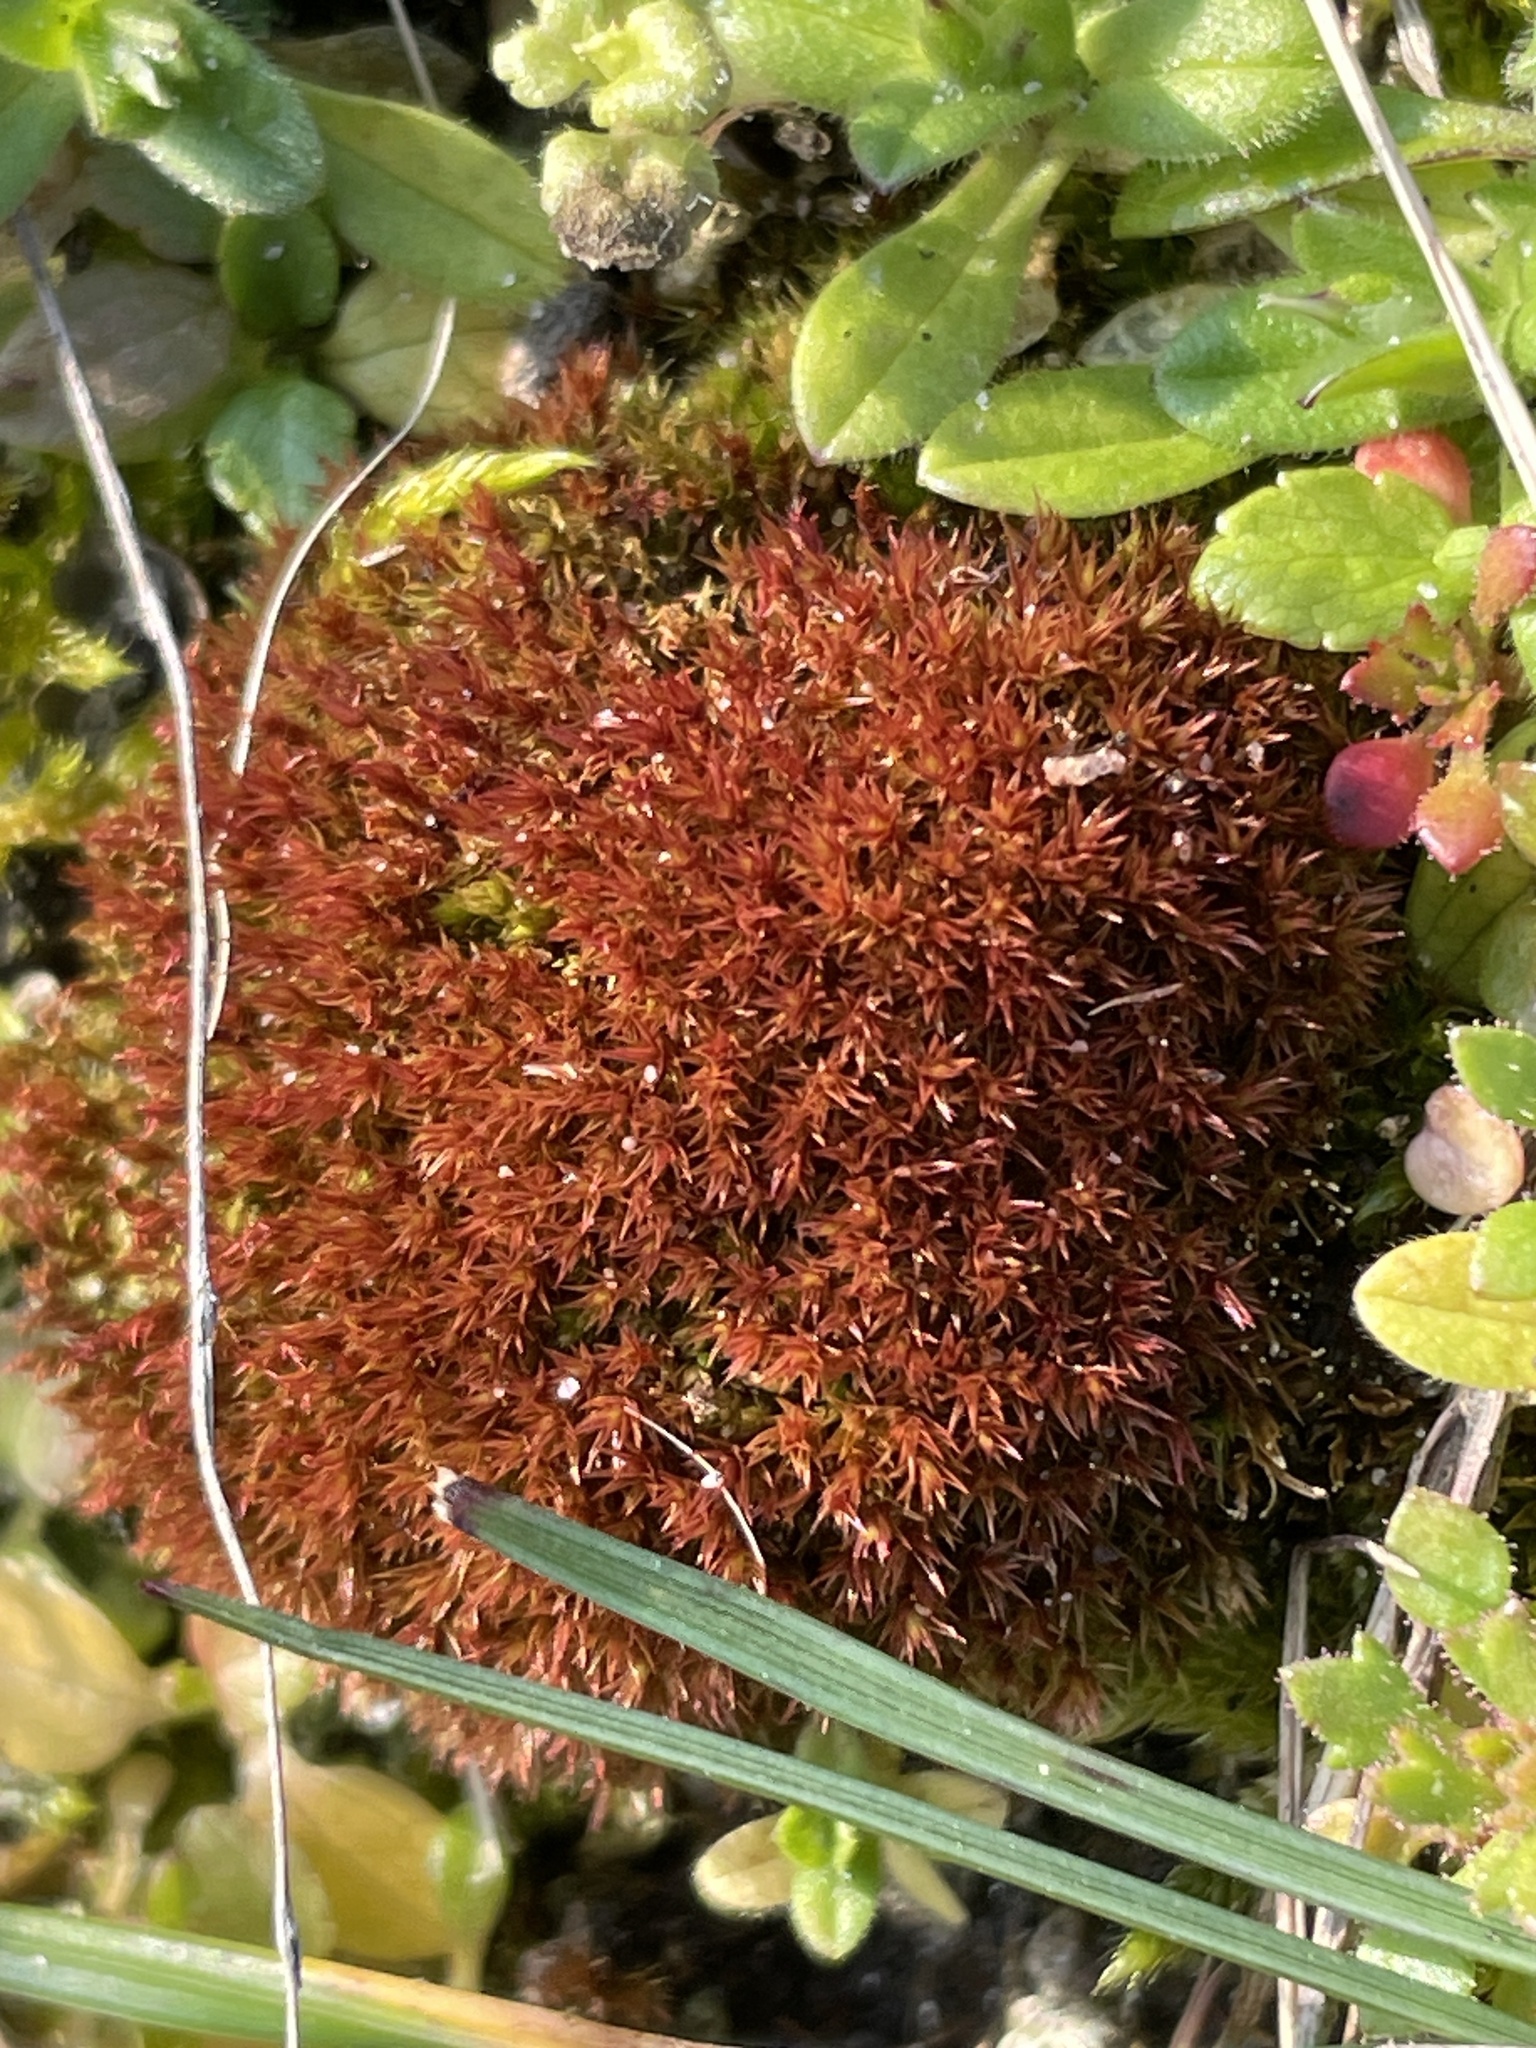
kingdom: Plantae
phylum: Bryophyta
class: Bryopsida
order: Dicranales
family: Ditrichaceae
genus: Ceratodon
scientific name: Ceratodon purpureus
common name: Redshank
